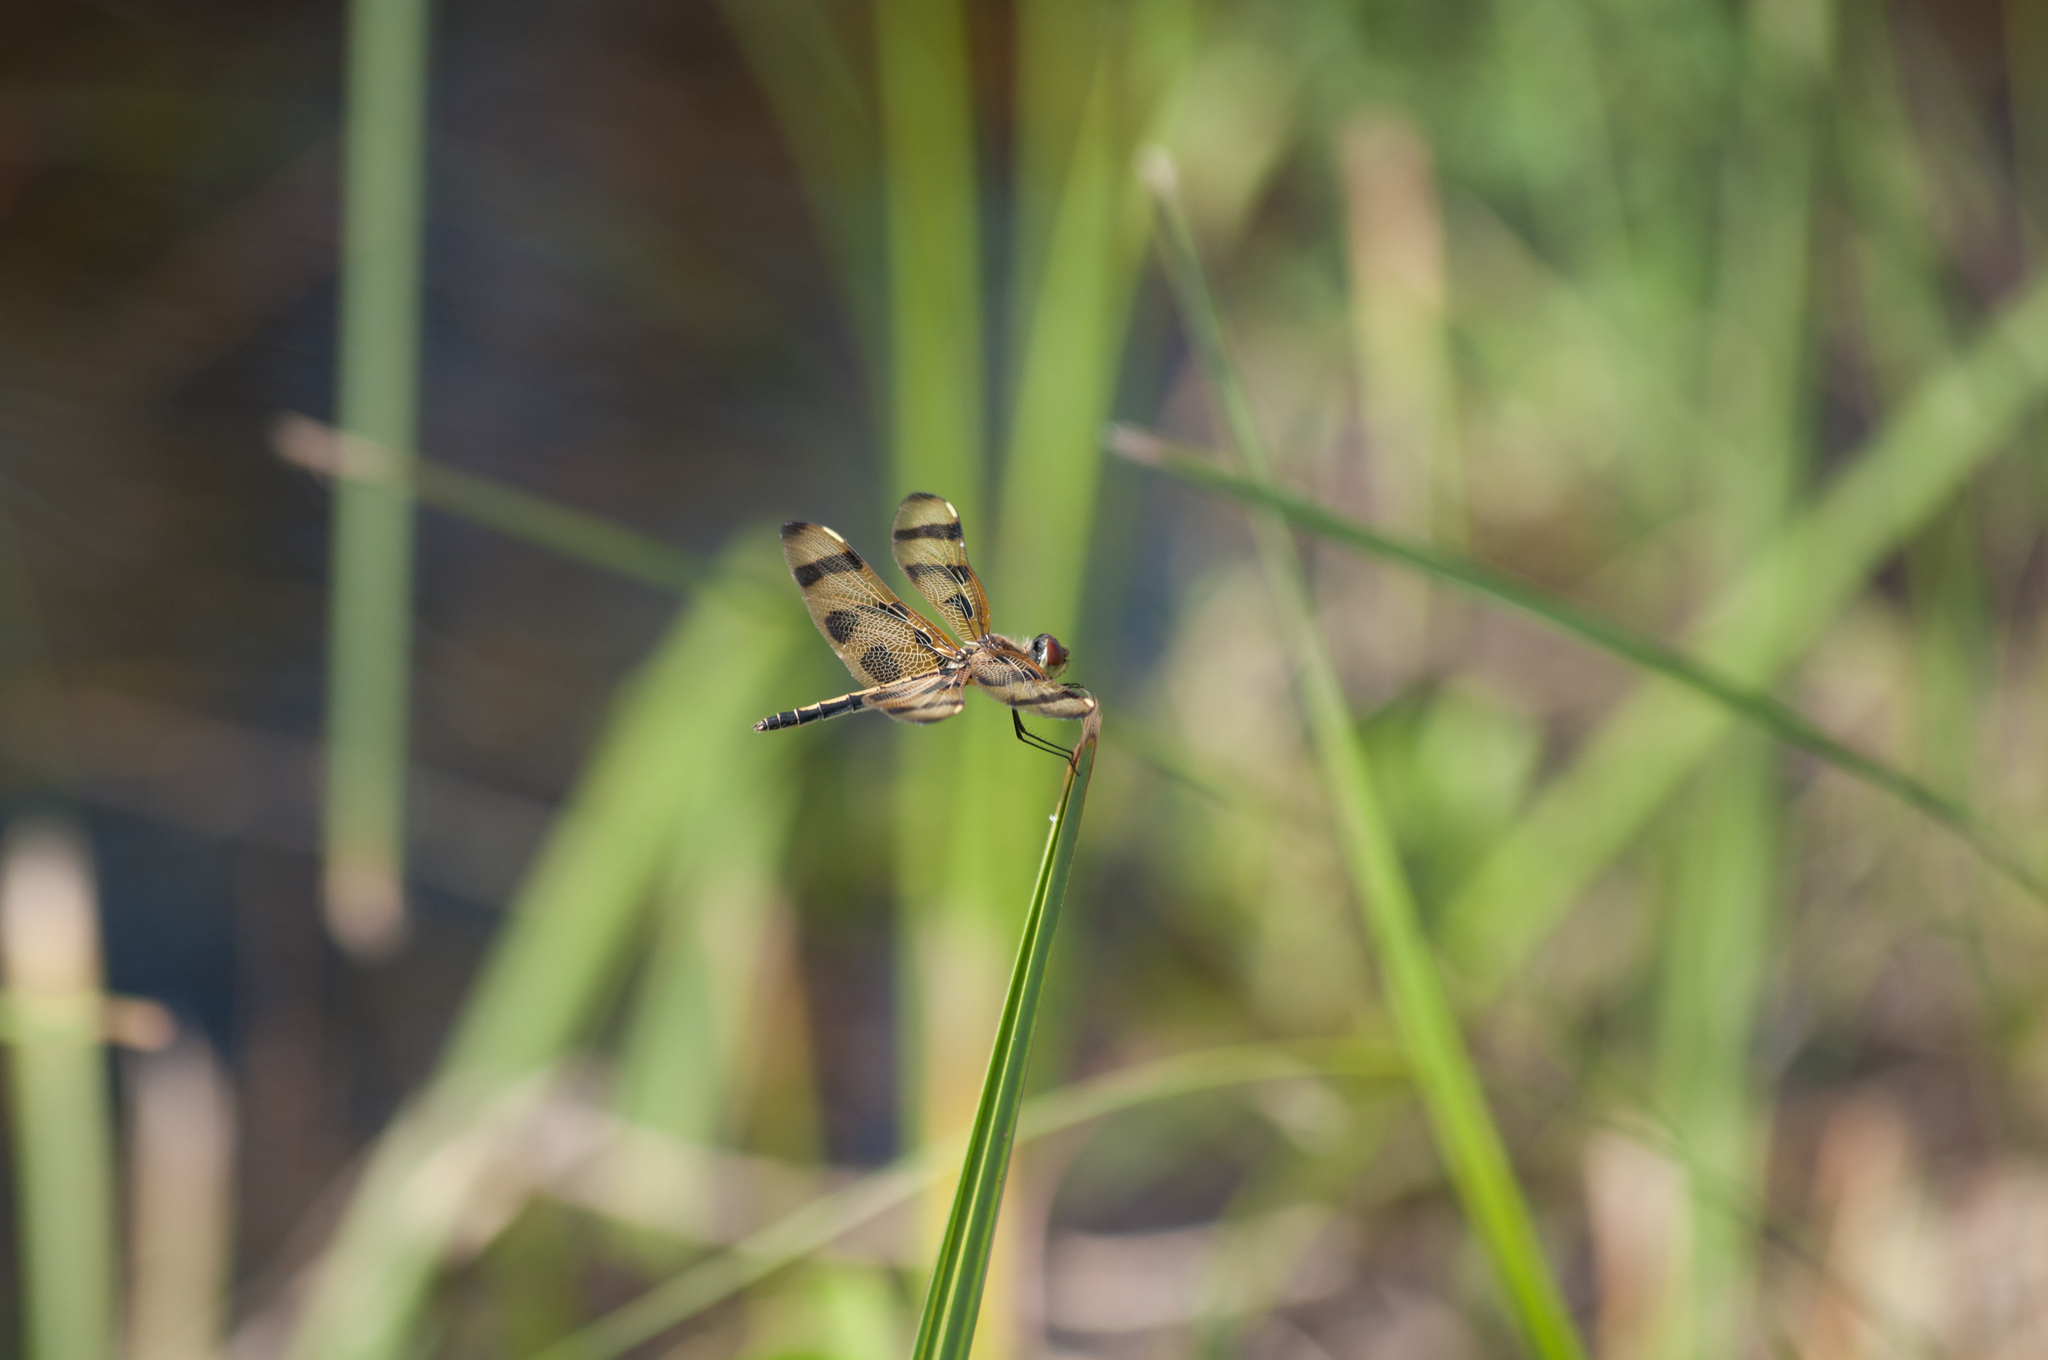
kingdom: Animalia
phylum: Arthropoda
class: Insecta
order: Odonata
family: Libellulidae
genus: Celithemis
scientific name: Celithemis eponina
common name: Halloween pennant
